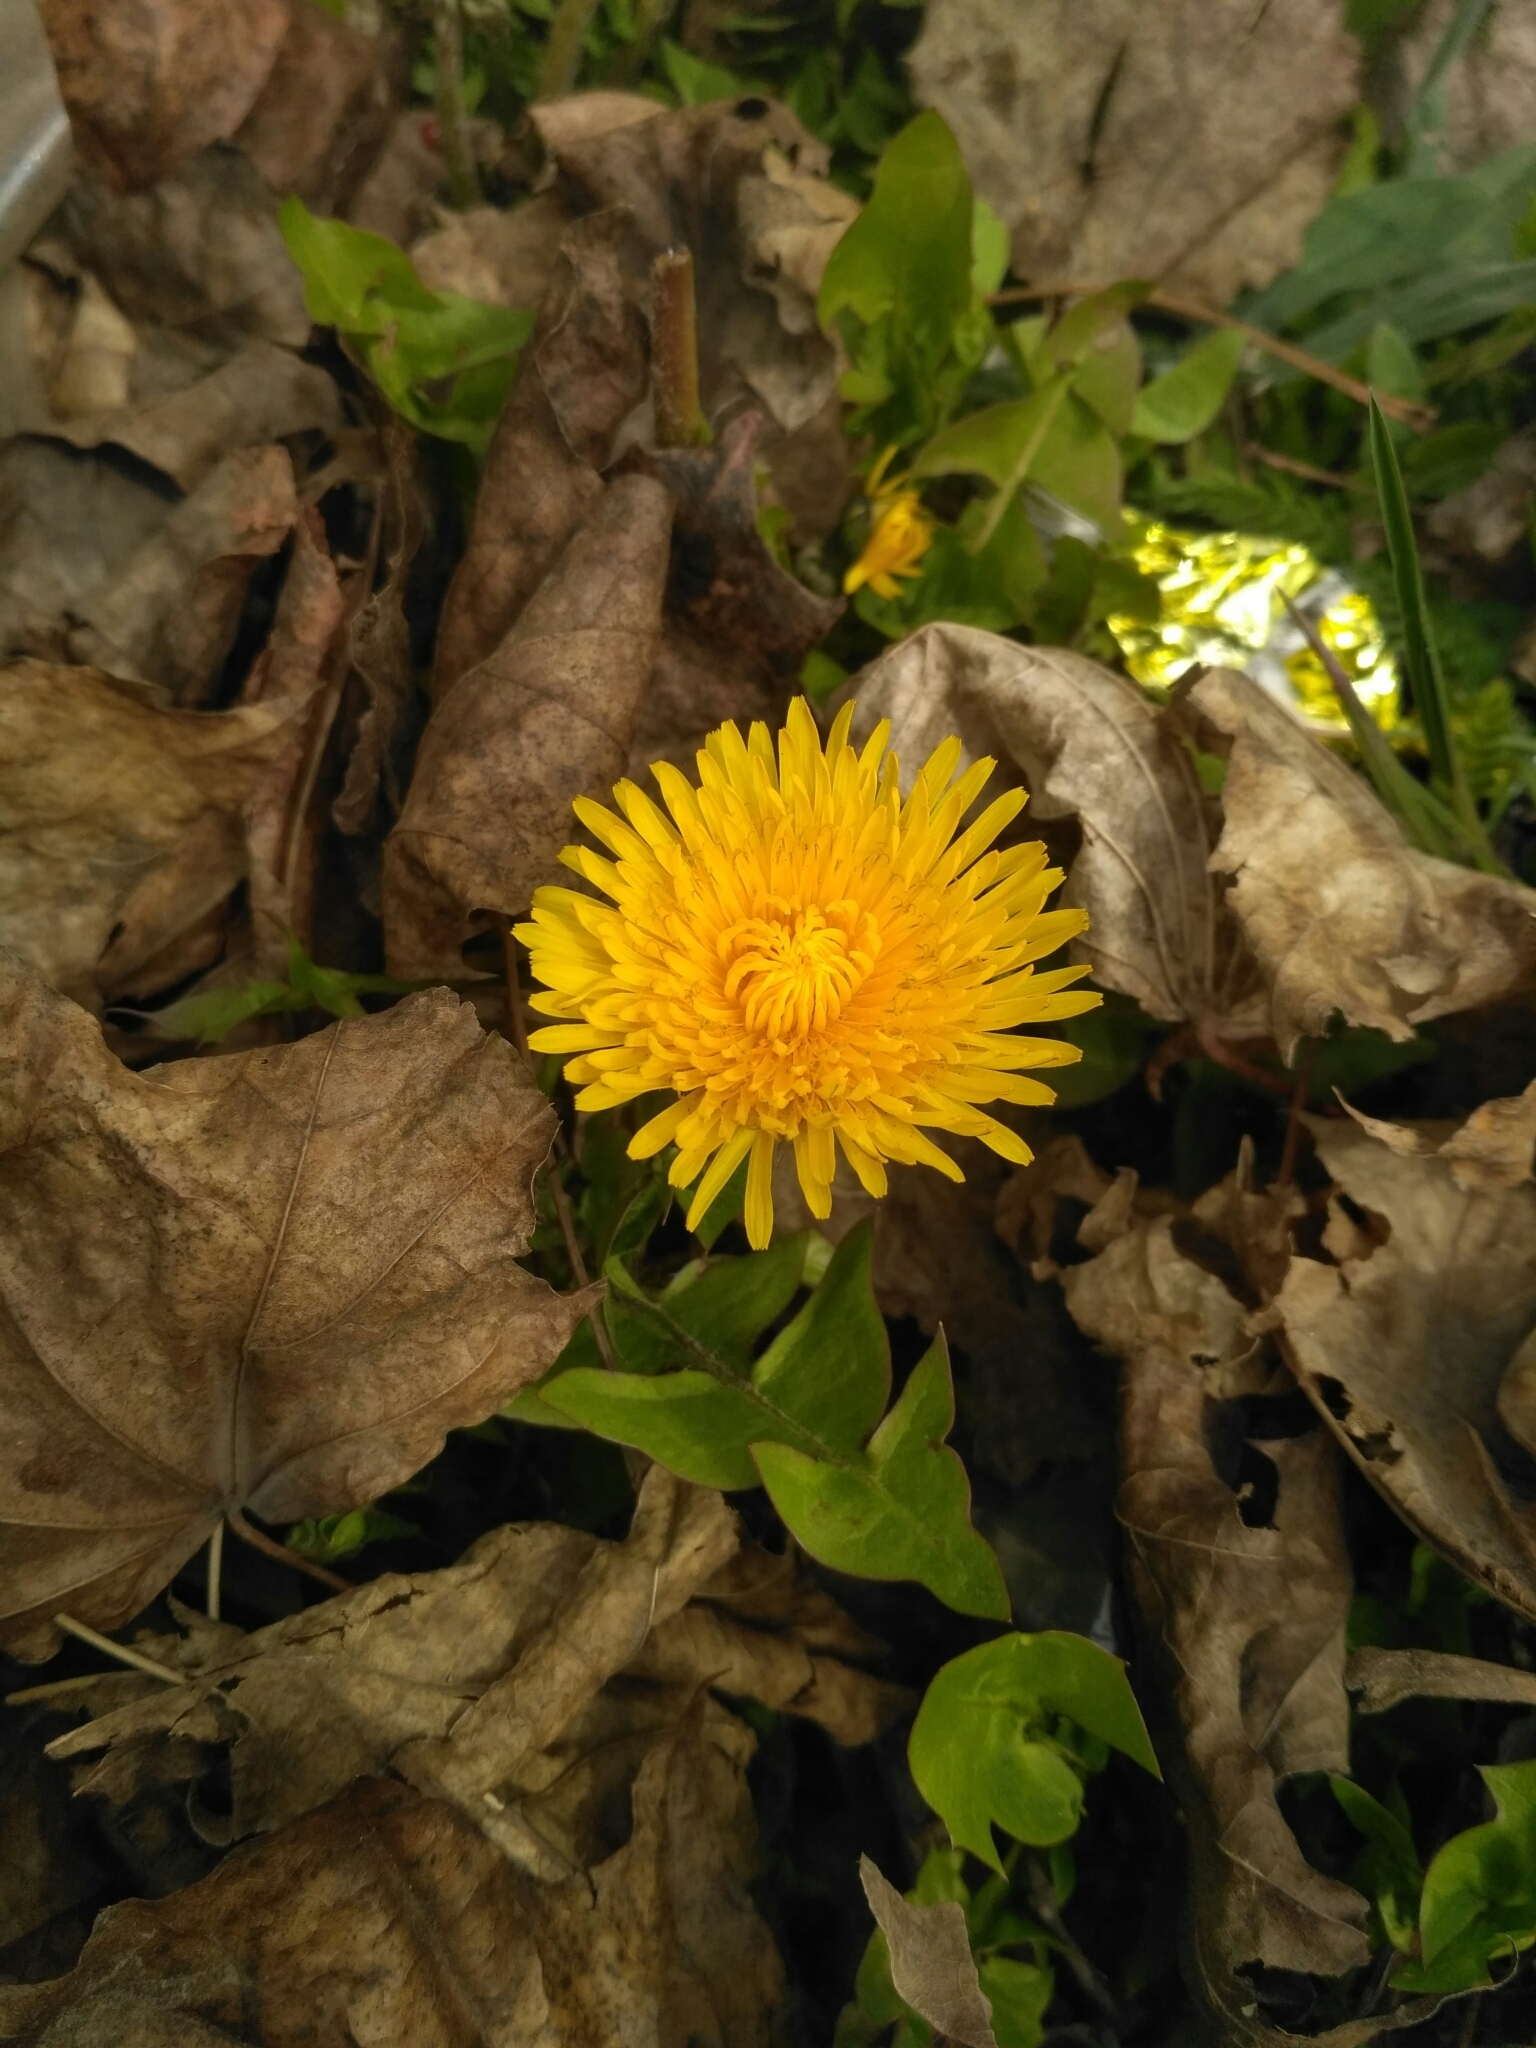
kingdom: Plantae
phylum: Tracheophyta
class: Magnoliopsida
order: Asterales
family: Asteraceae
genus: Taraxacum
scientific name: Taraxacum officinale
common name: Common dandelion
